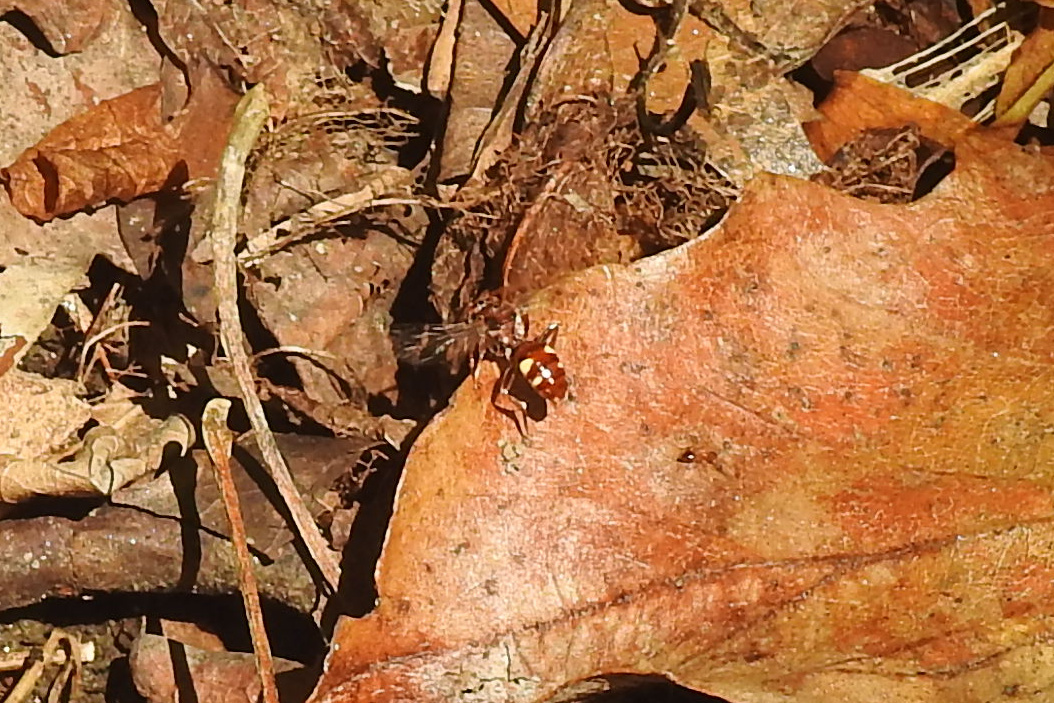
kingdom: Animalia
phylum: Arthropoda
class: Insecta
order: Hymenoptera
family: Apidae
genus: Nomada
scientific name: Nomada
